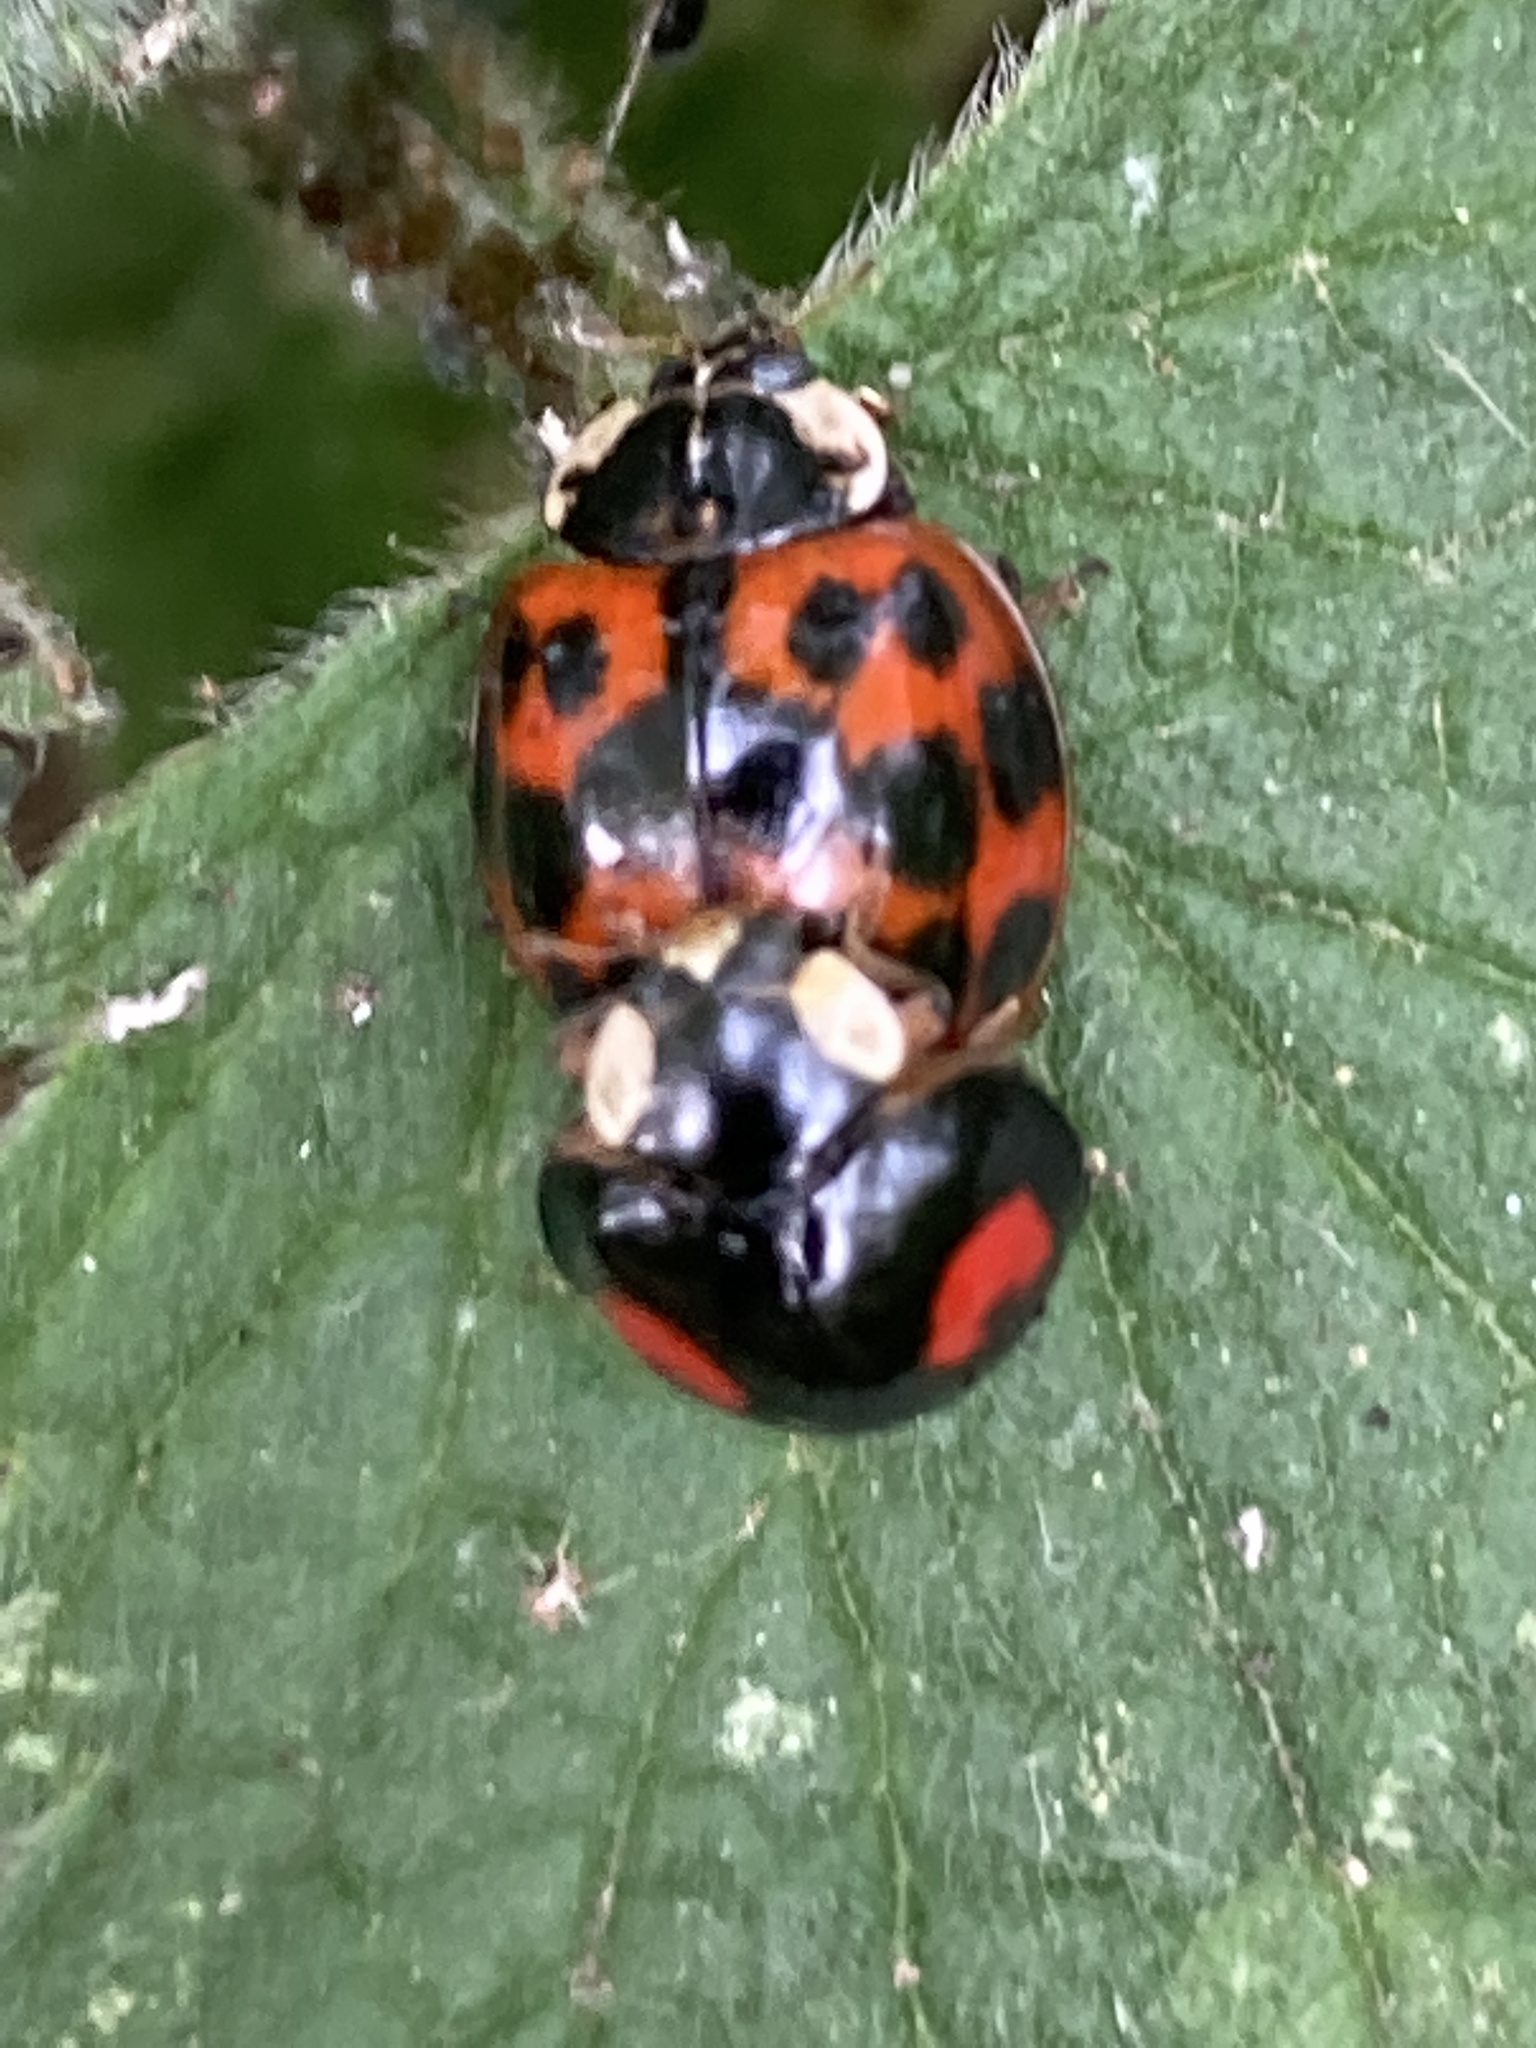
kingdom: Animalia
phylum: Arthropoda
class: Insecta
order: Coleoptera
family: Coccinellidae
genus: Harmonia
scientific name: Harmonia axyridis
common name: Harlequin ladybird
